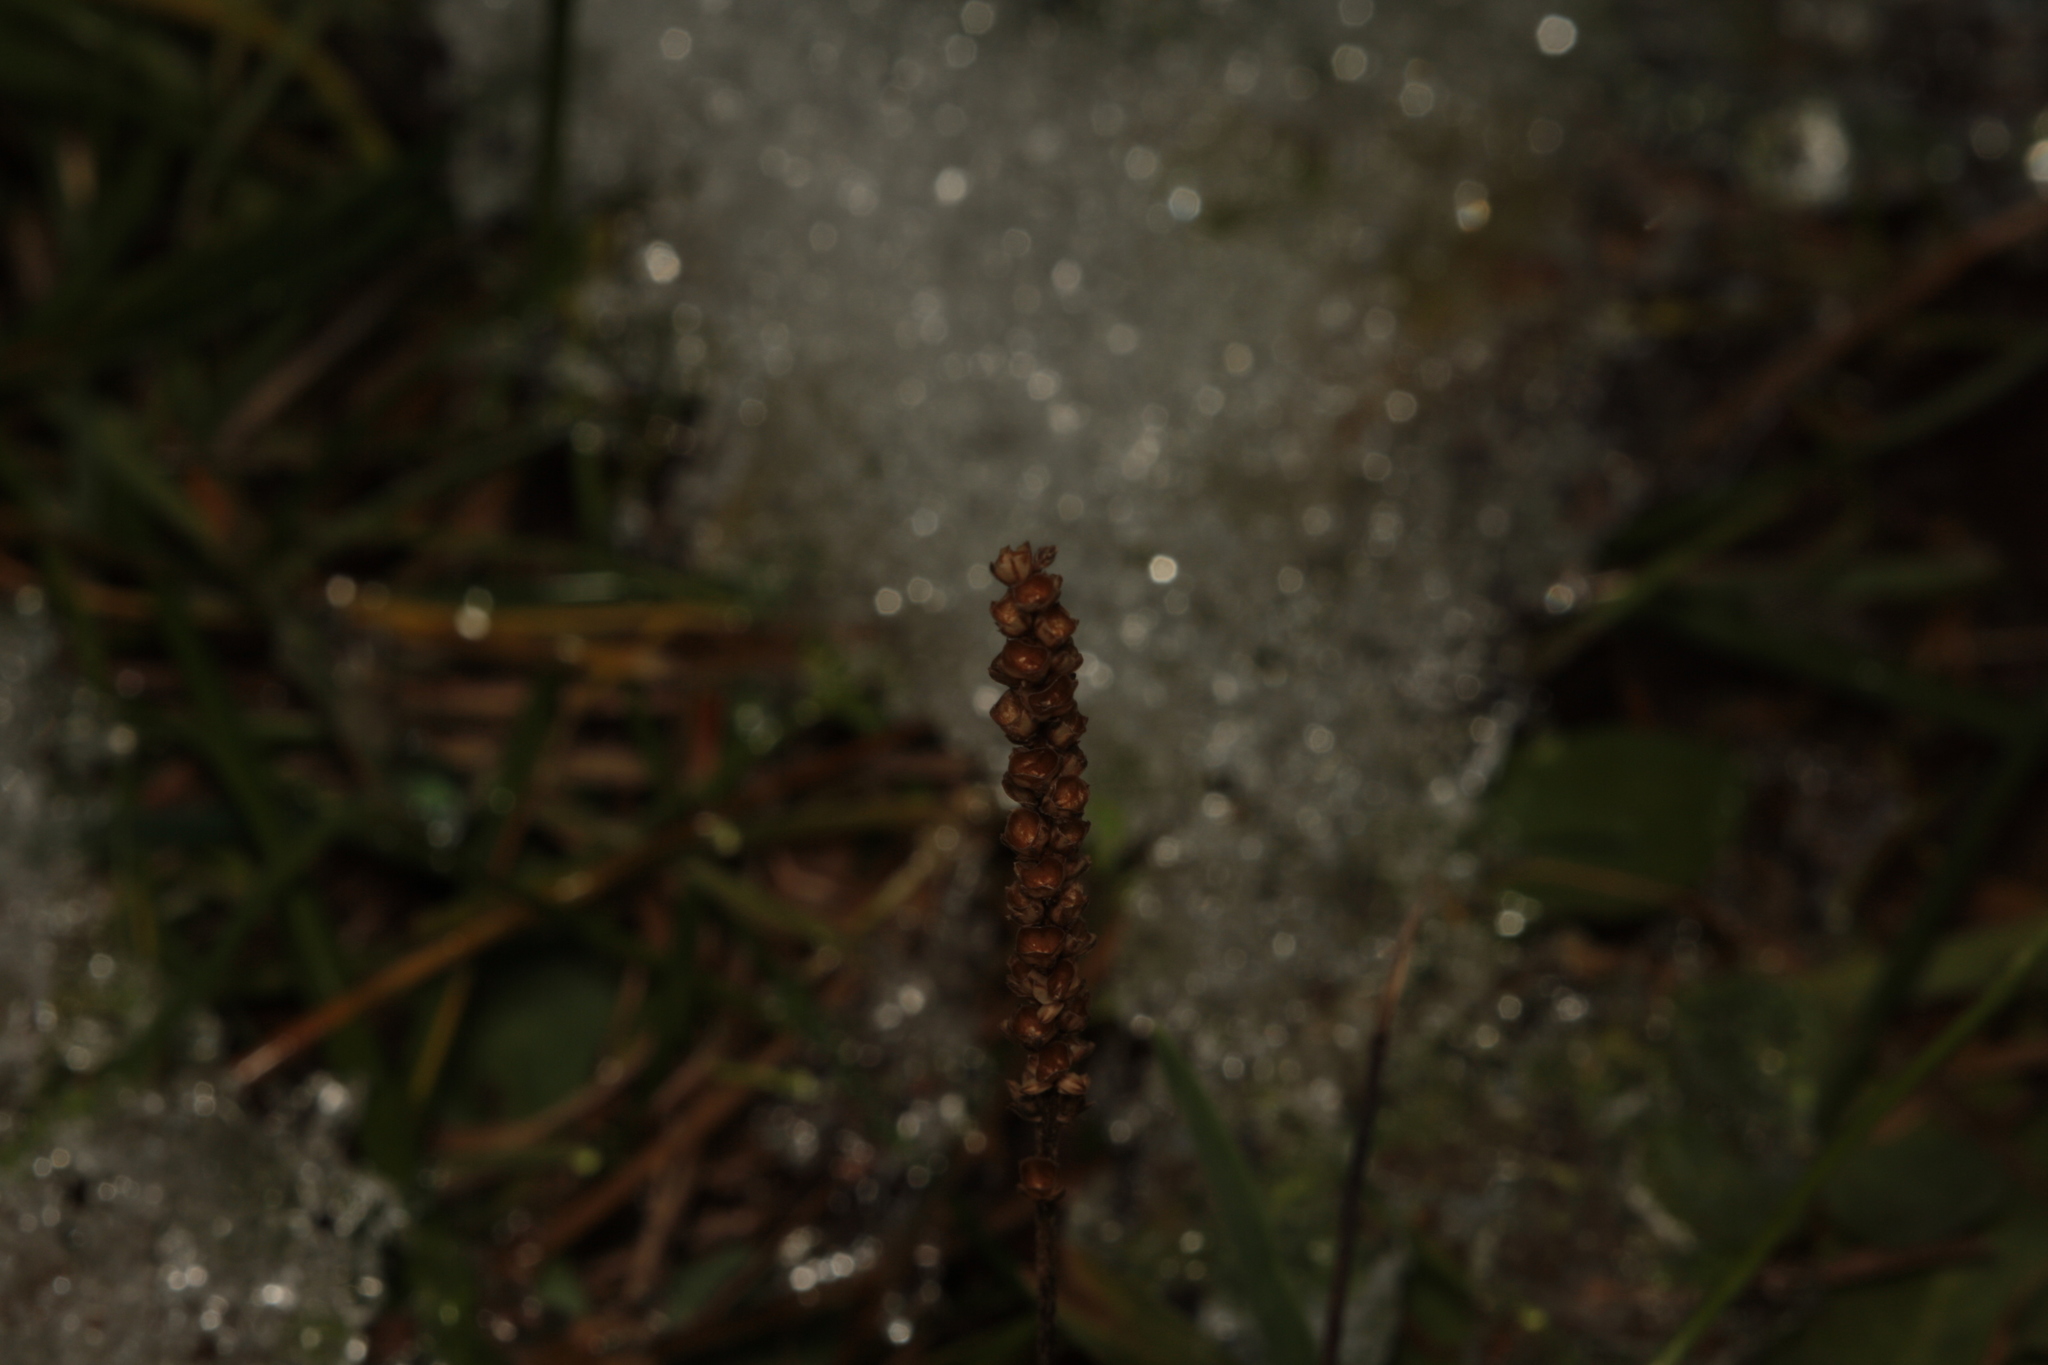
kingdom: Plantae
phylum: Tracheophyta
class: Magnoliopsida
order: Lamiales
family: Plantaginaceae
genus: Plantago
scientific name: Plantago major
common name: Common plantain
